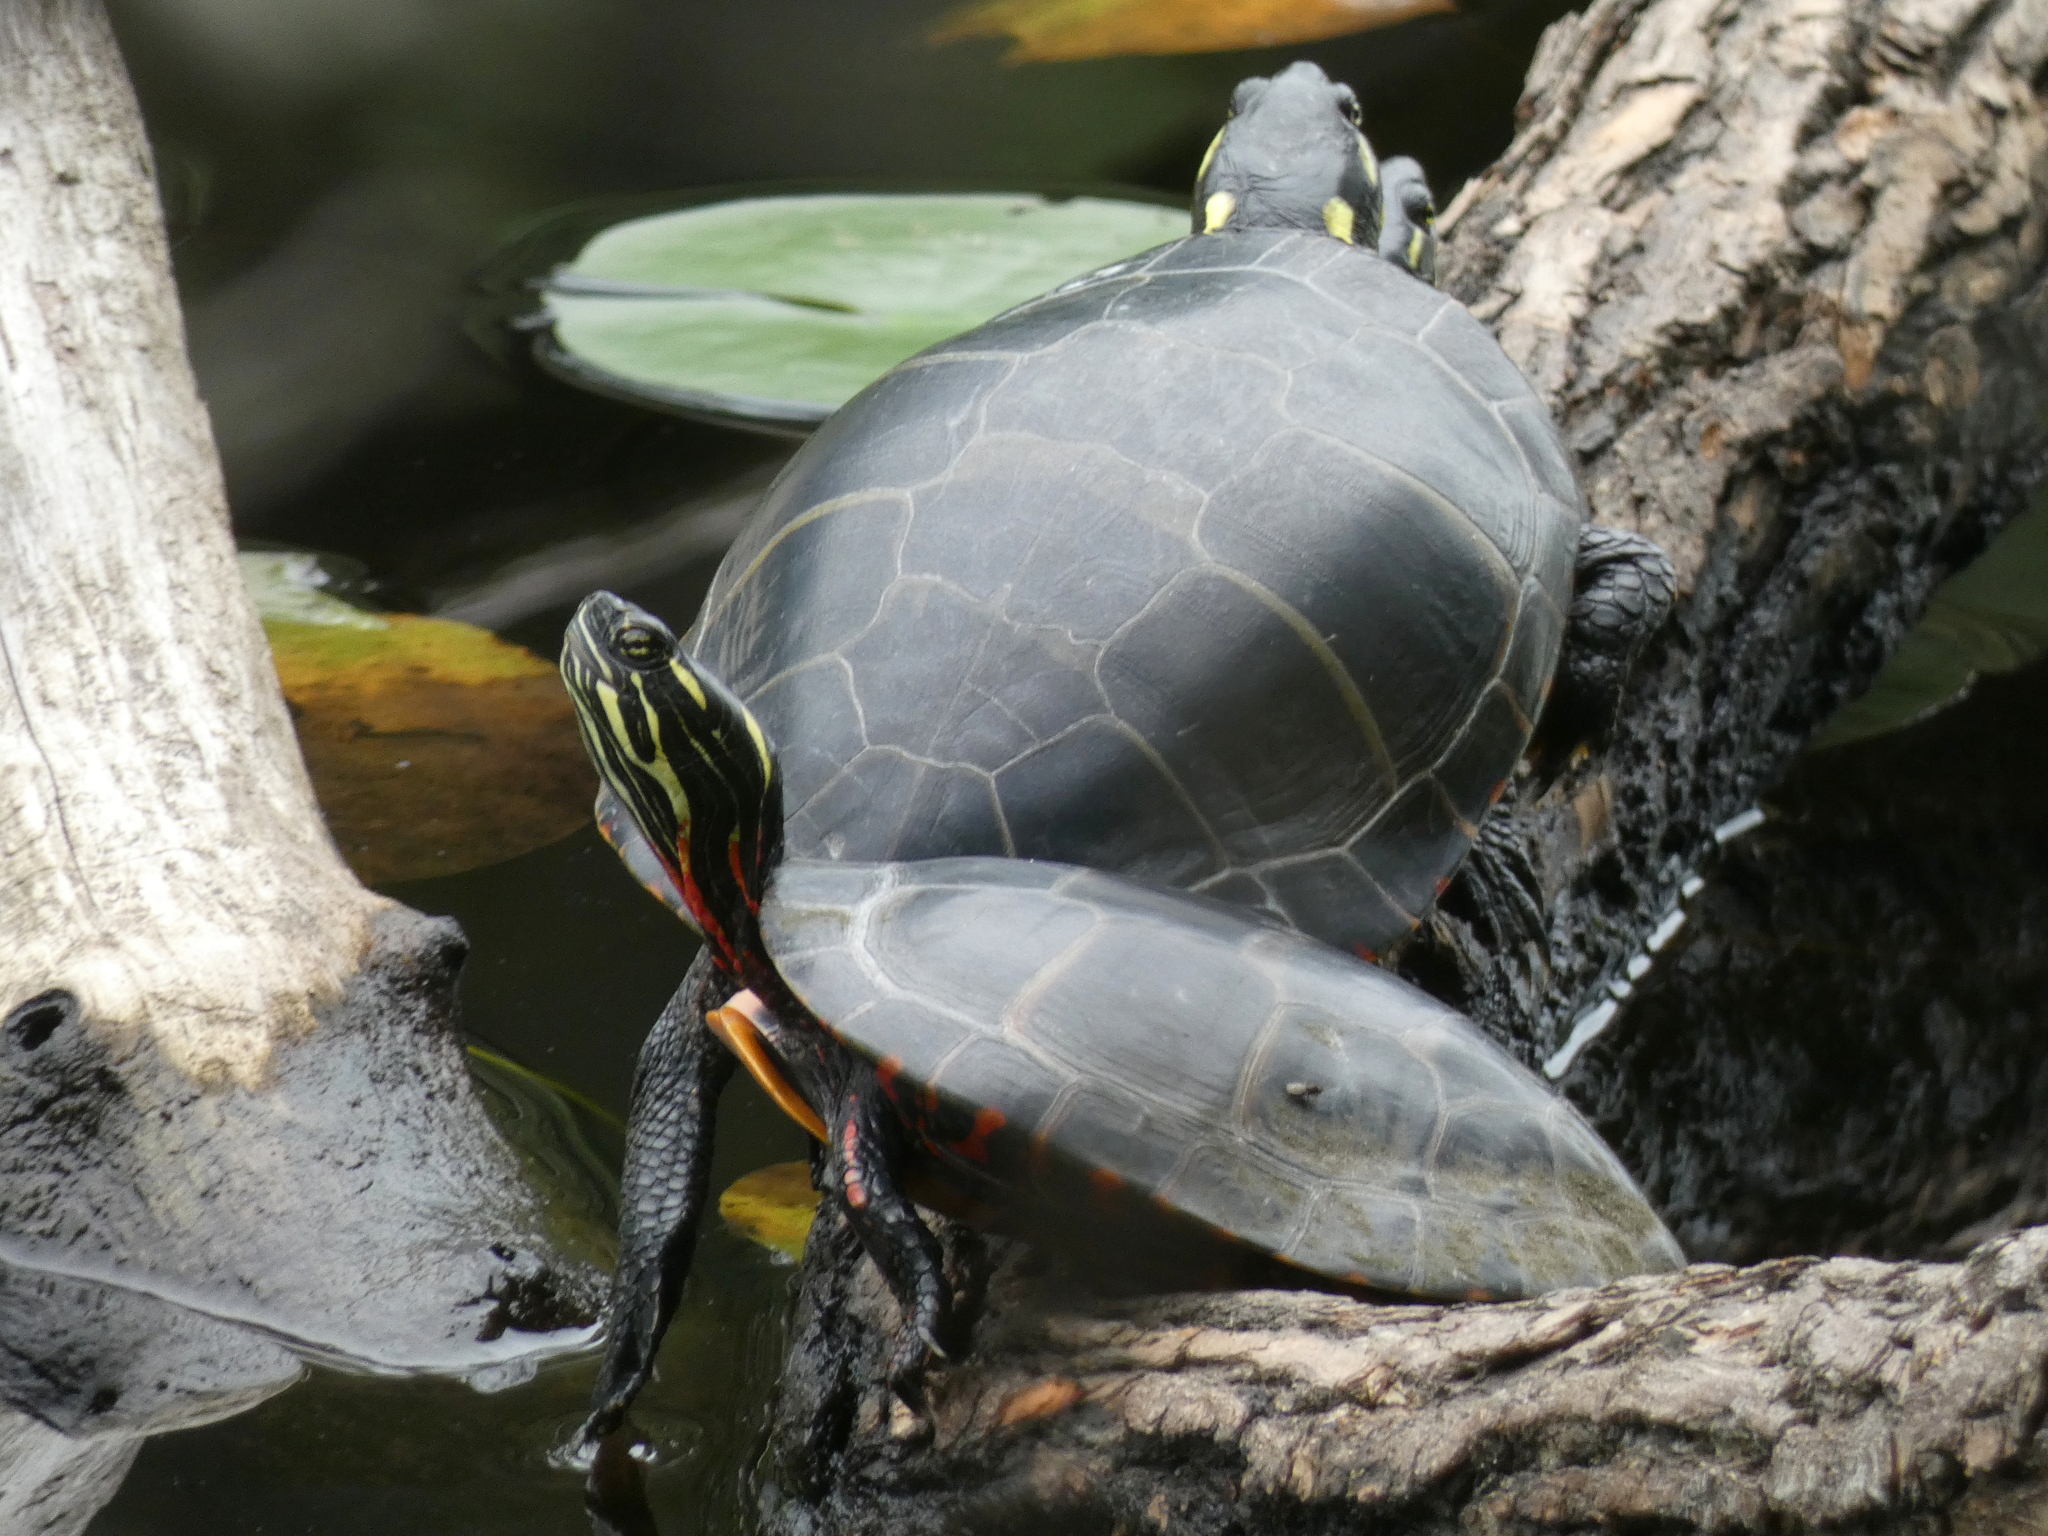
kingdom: Animalia
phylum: Chordata
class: Testudines
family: Emydidae
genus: Chrysemys
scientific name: Chrysemys picta
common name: Painted turtle
